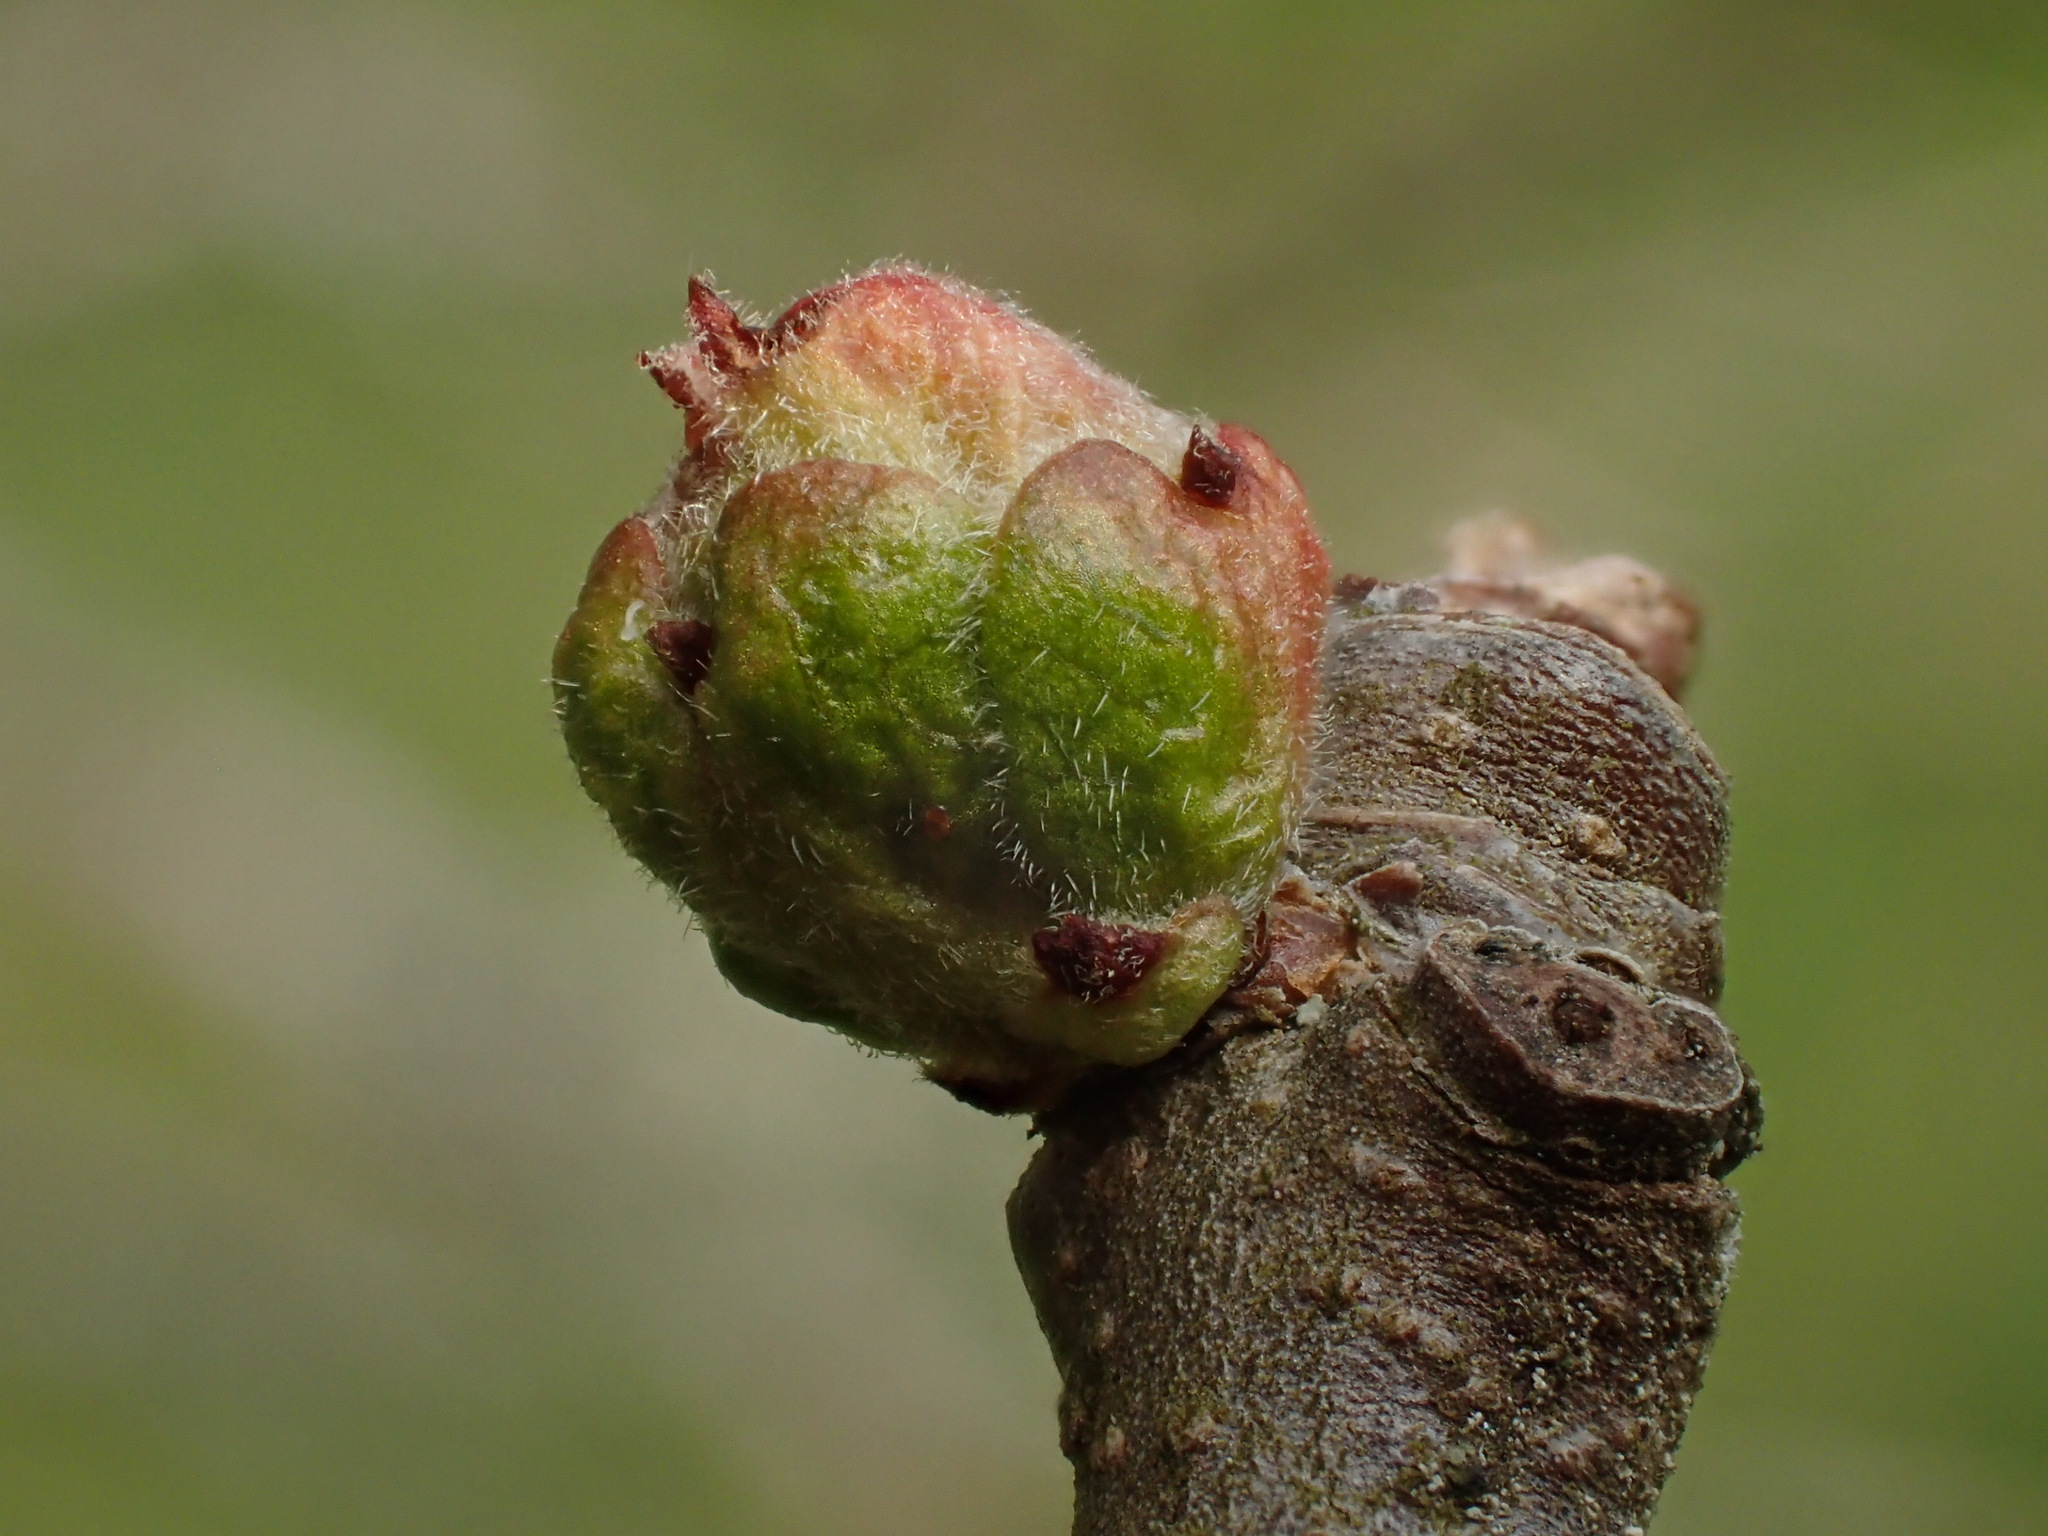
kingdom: Plantae
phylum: Tracheophyta
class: Magnoliopsida
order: Rosales
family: Rosaceae
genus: Mespilus
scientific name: Mespilus germanica
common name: Medlar
